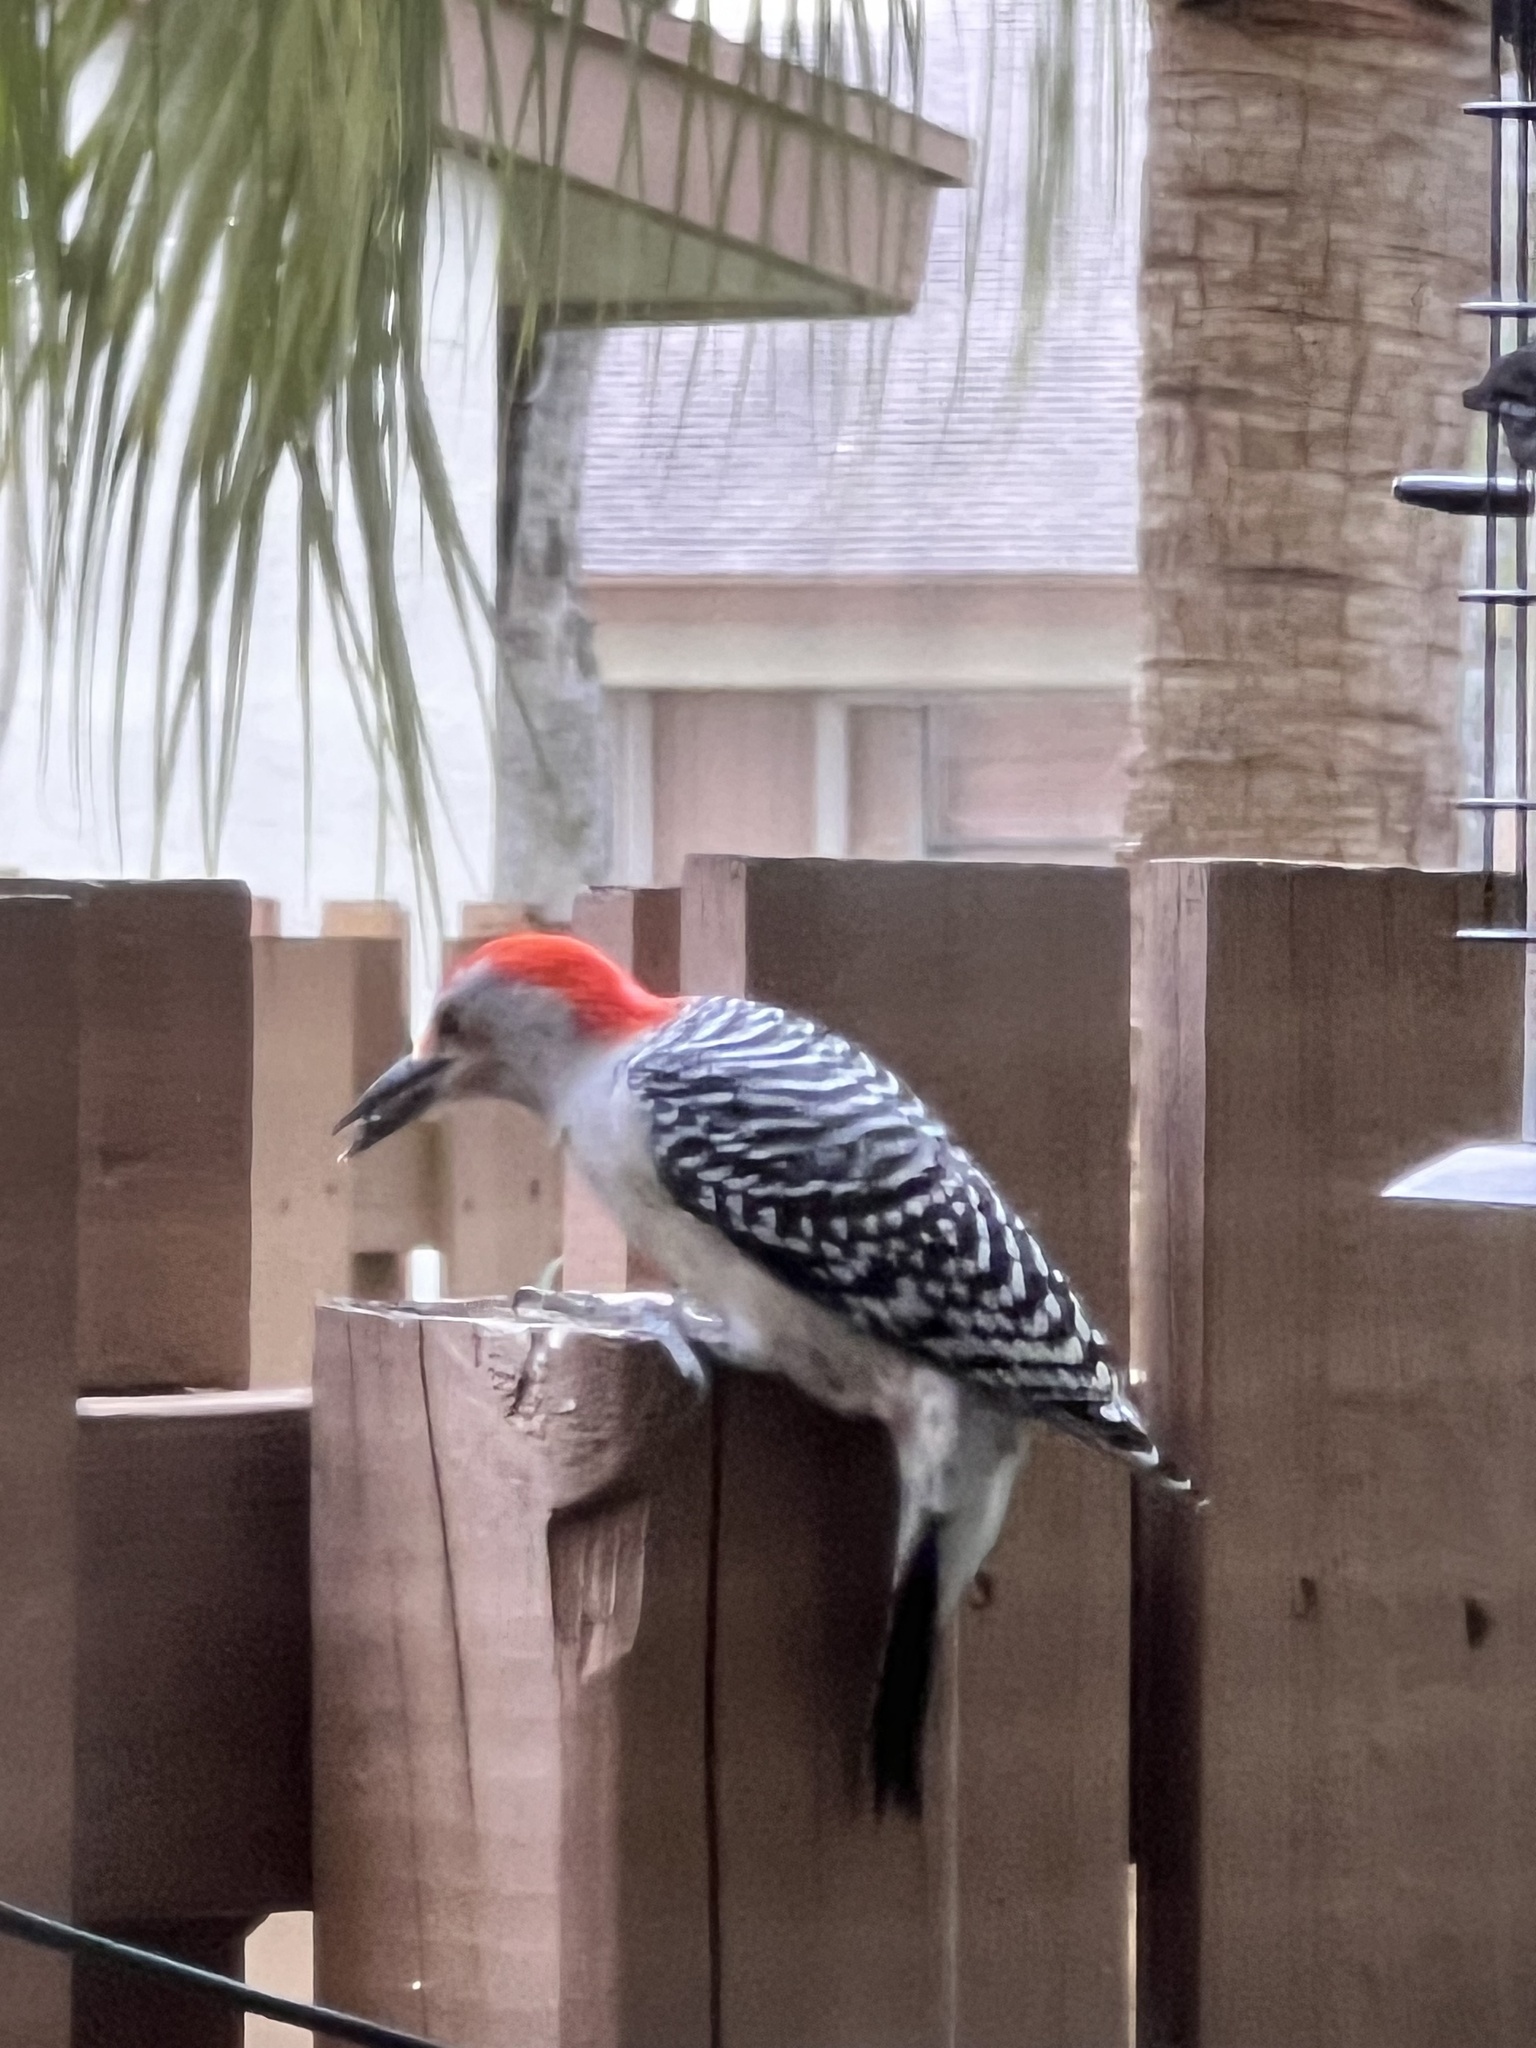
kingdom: Animalia
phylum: Chordata
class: Aves
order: Piciformes
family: Picidae
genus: Melanerpes
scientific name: Melanerpes carolinus
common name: Red-bellied woodpecker
